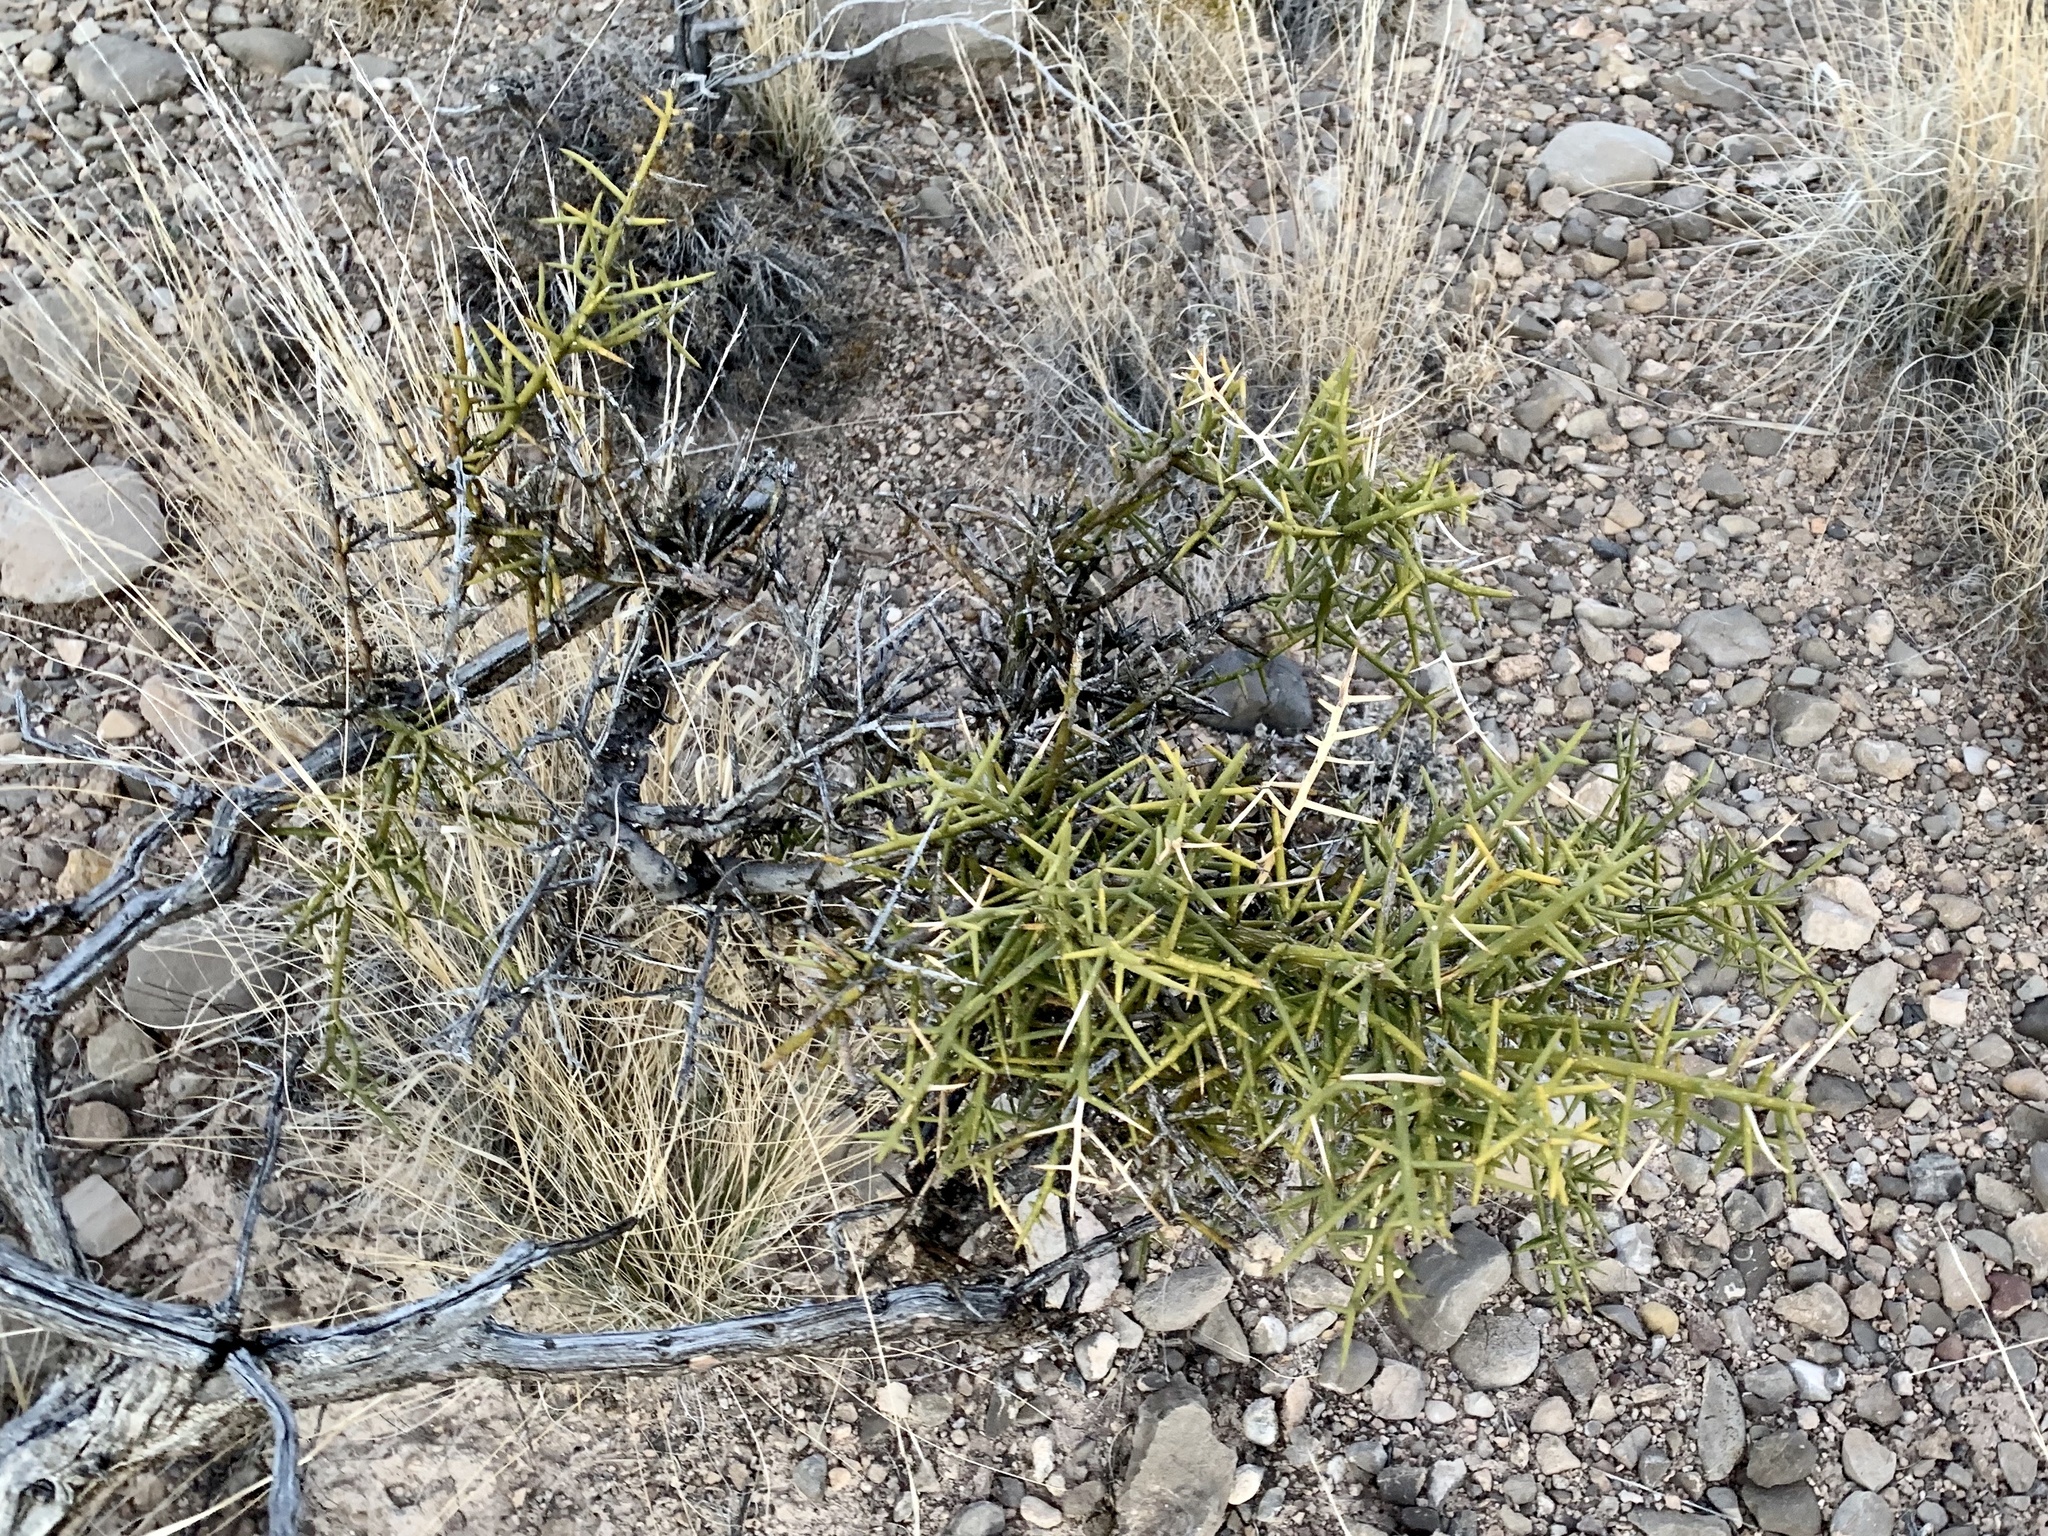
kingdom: Plantae
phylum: Tracheophyta
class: Magnoliopsida
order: Brassicales
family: Koeberliniaceae
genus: Koeberlinia
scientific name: Koeberlinia spinosa
